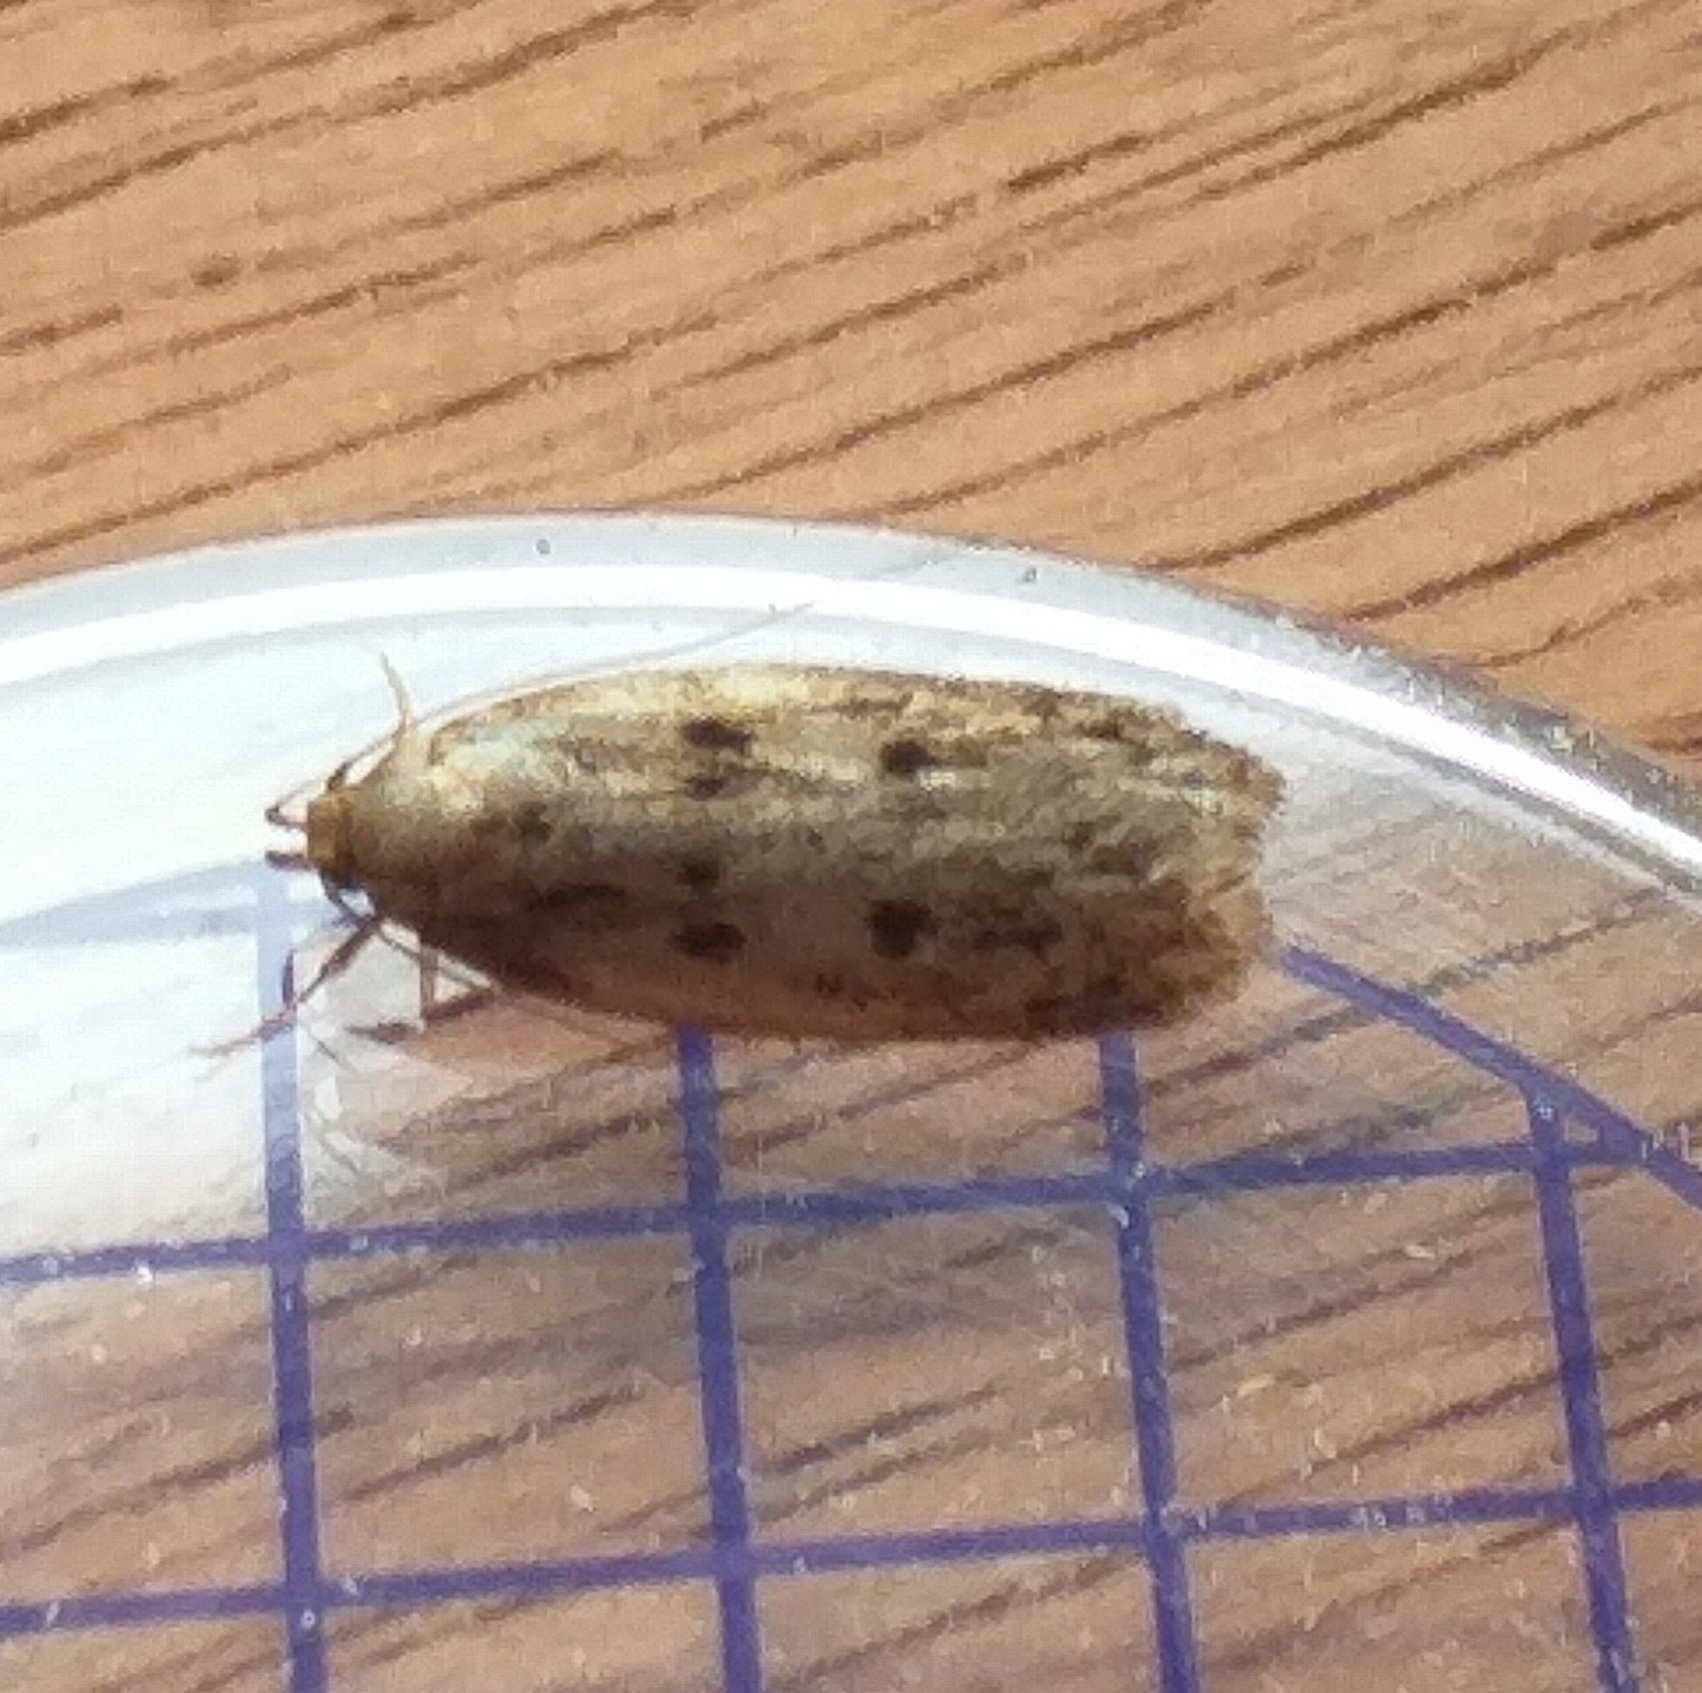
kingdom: Animalia
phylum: Arthropoda
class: Insecta
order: Lepidoptera
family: Oecophoridae
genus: Hofmannophila
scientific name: Hofmannophila pseudospretella
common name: Brown house moth
